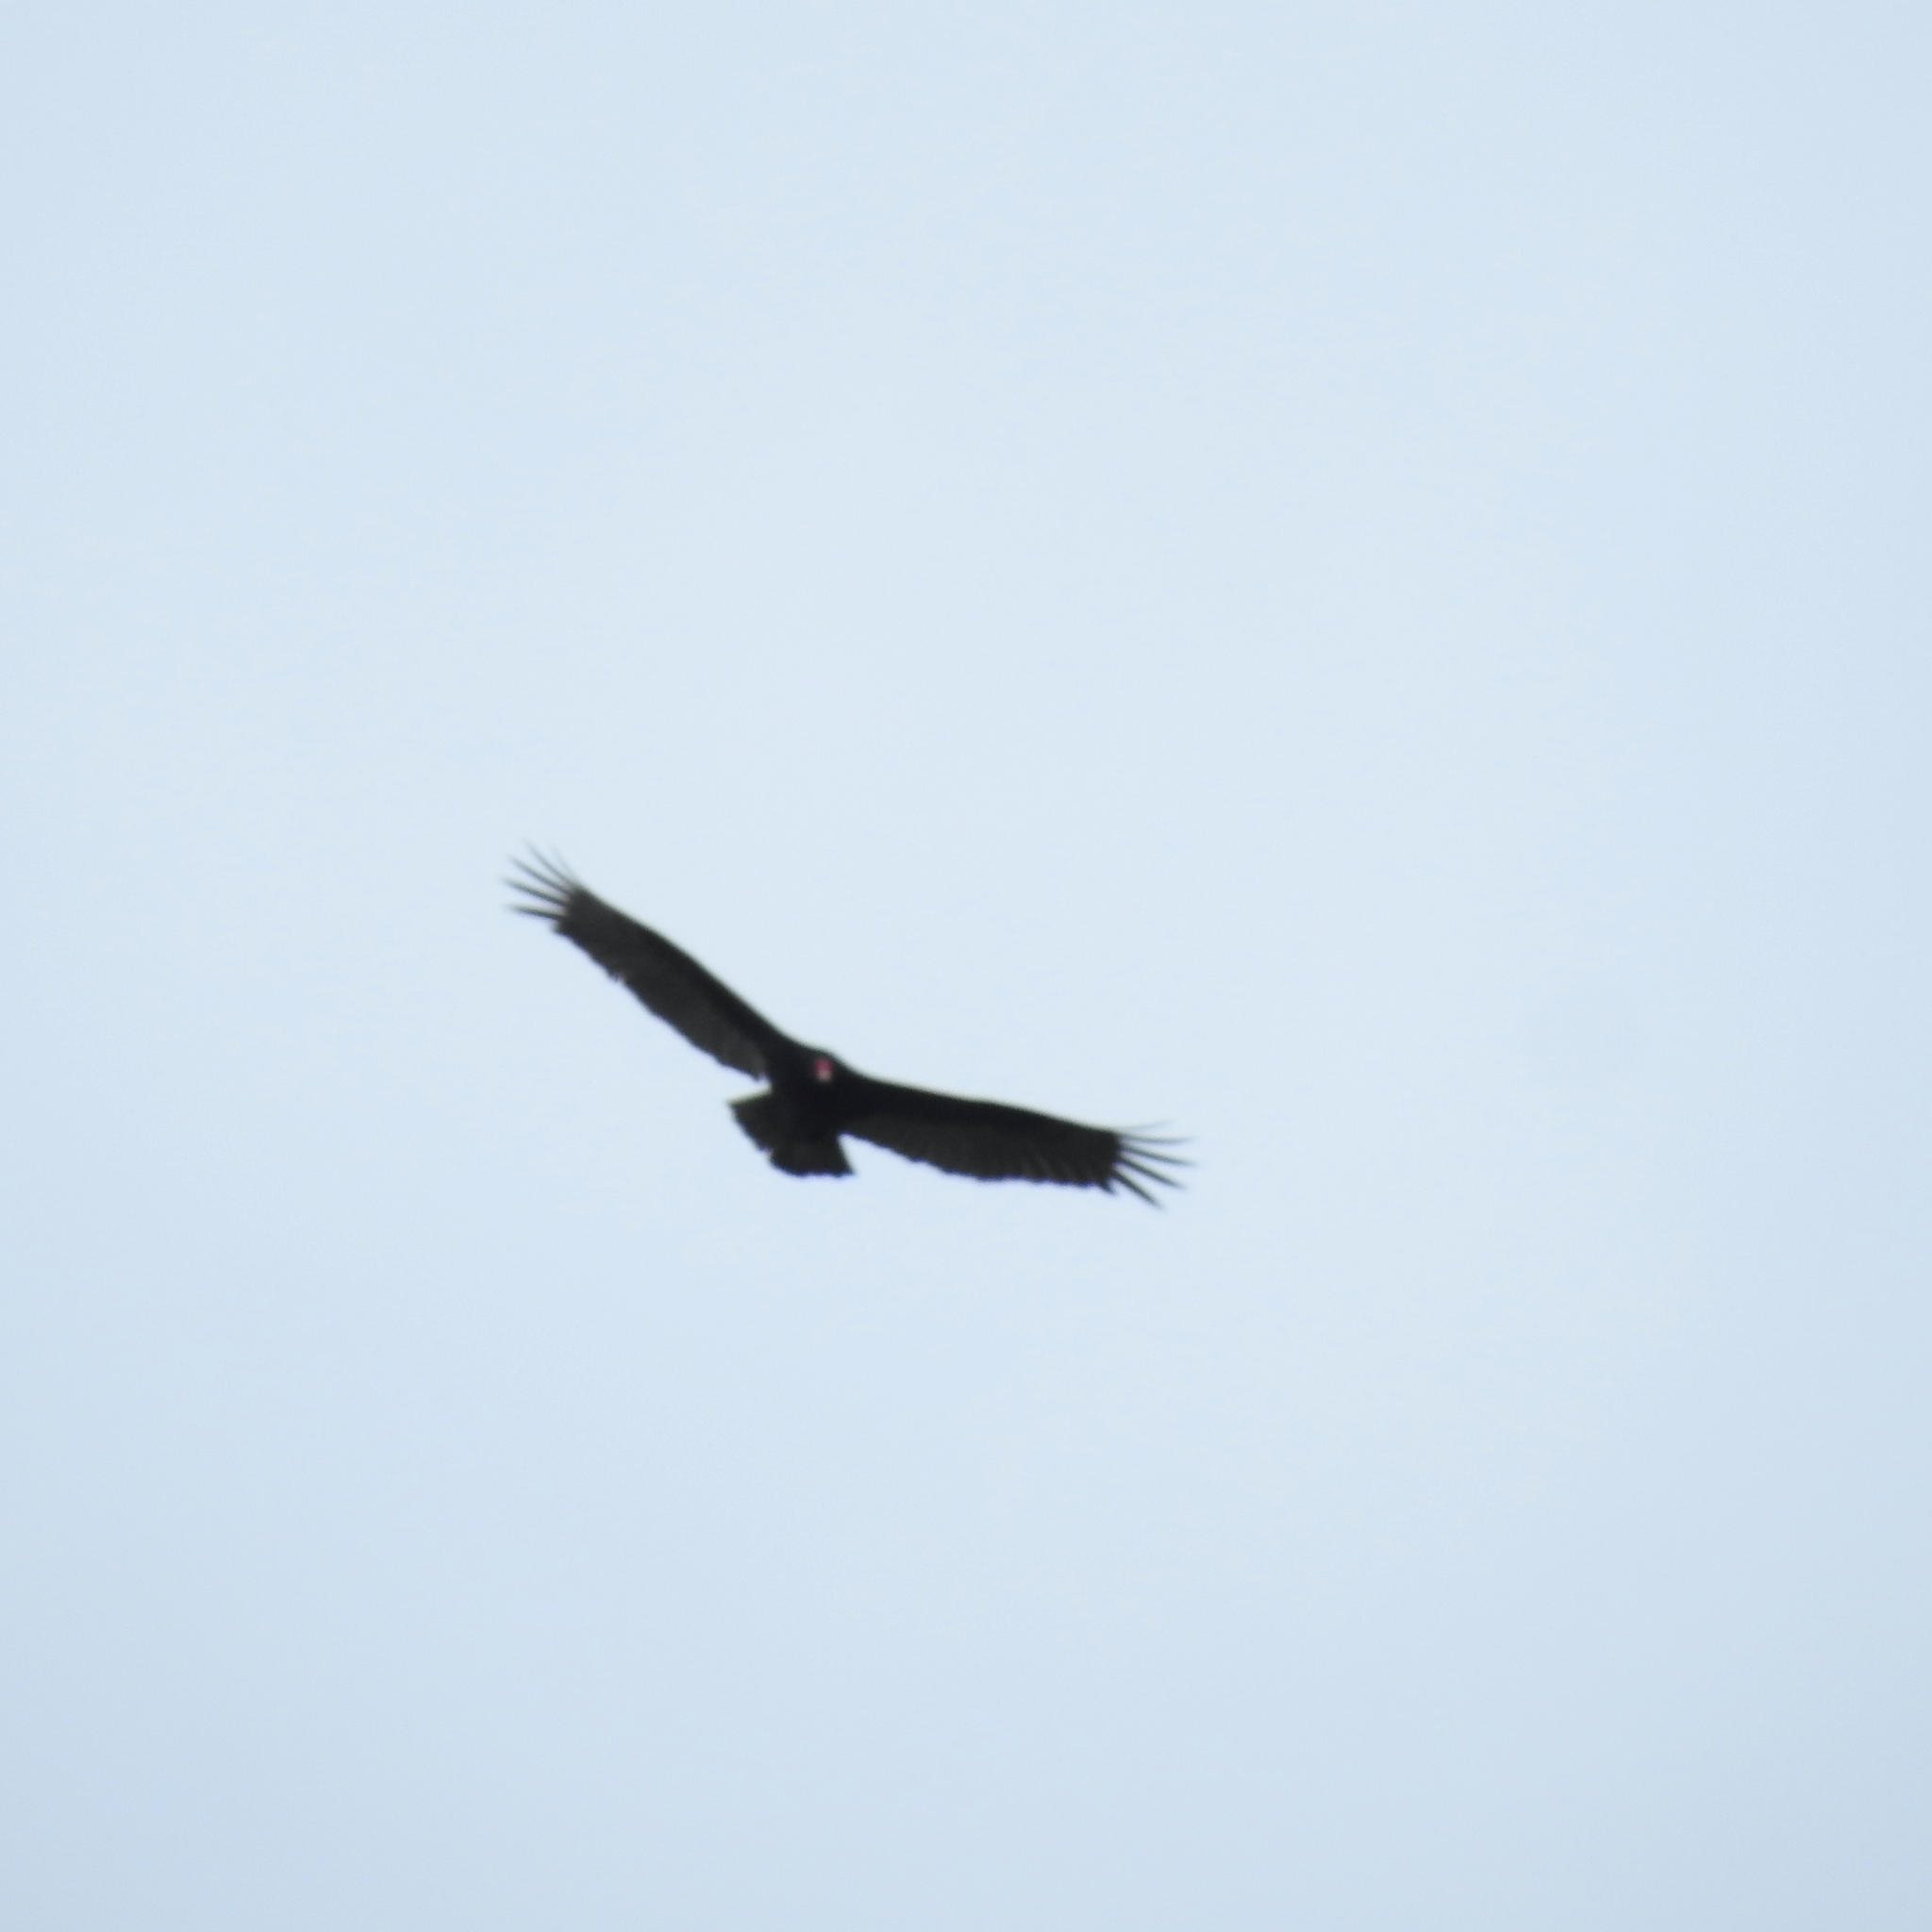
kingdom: Animalia
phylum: Chordata
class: Aves
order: Accipitriformes
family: Cathartidae
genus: Cathartes
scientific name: Cathartes aura
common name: Turkey vulture
